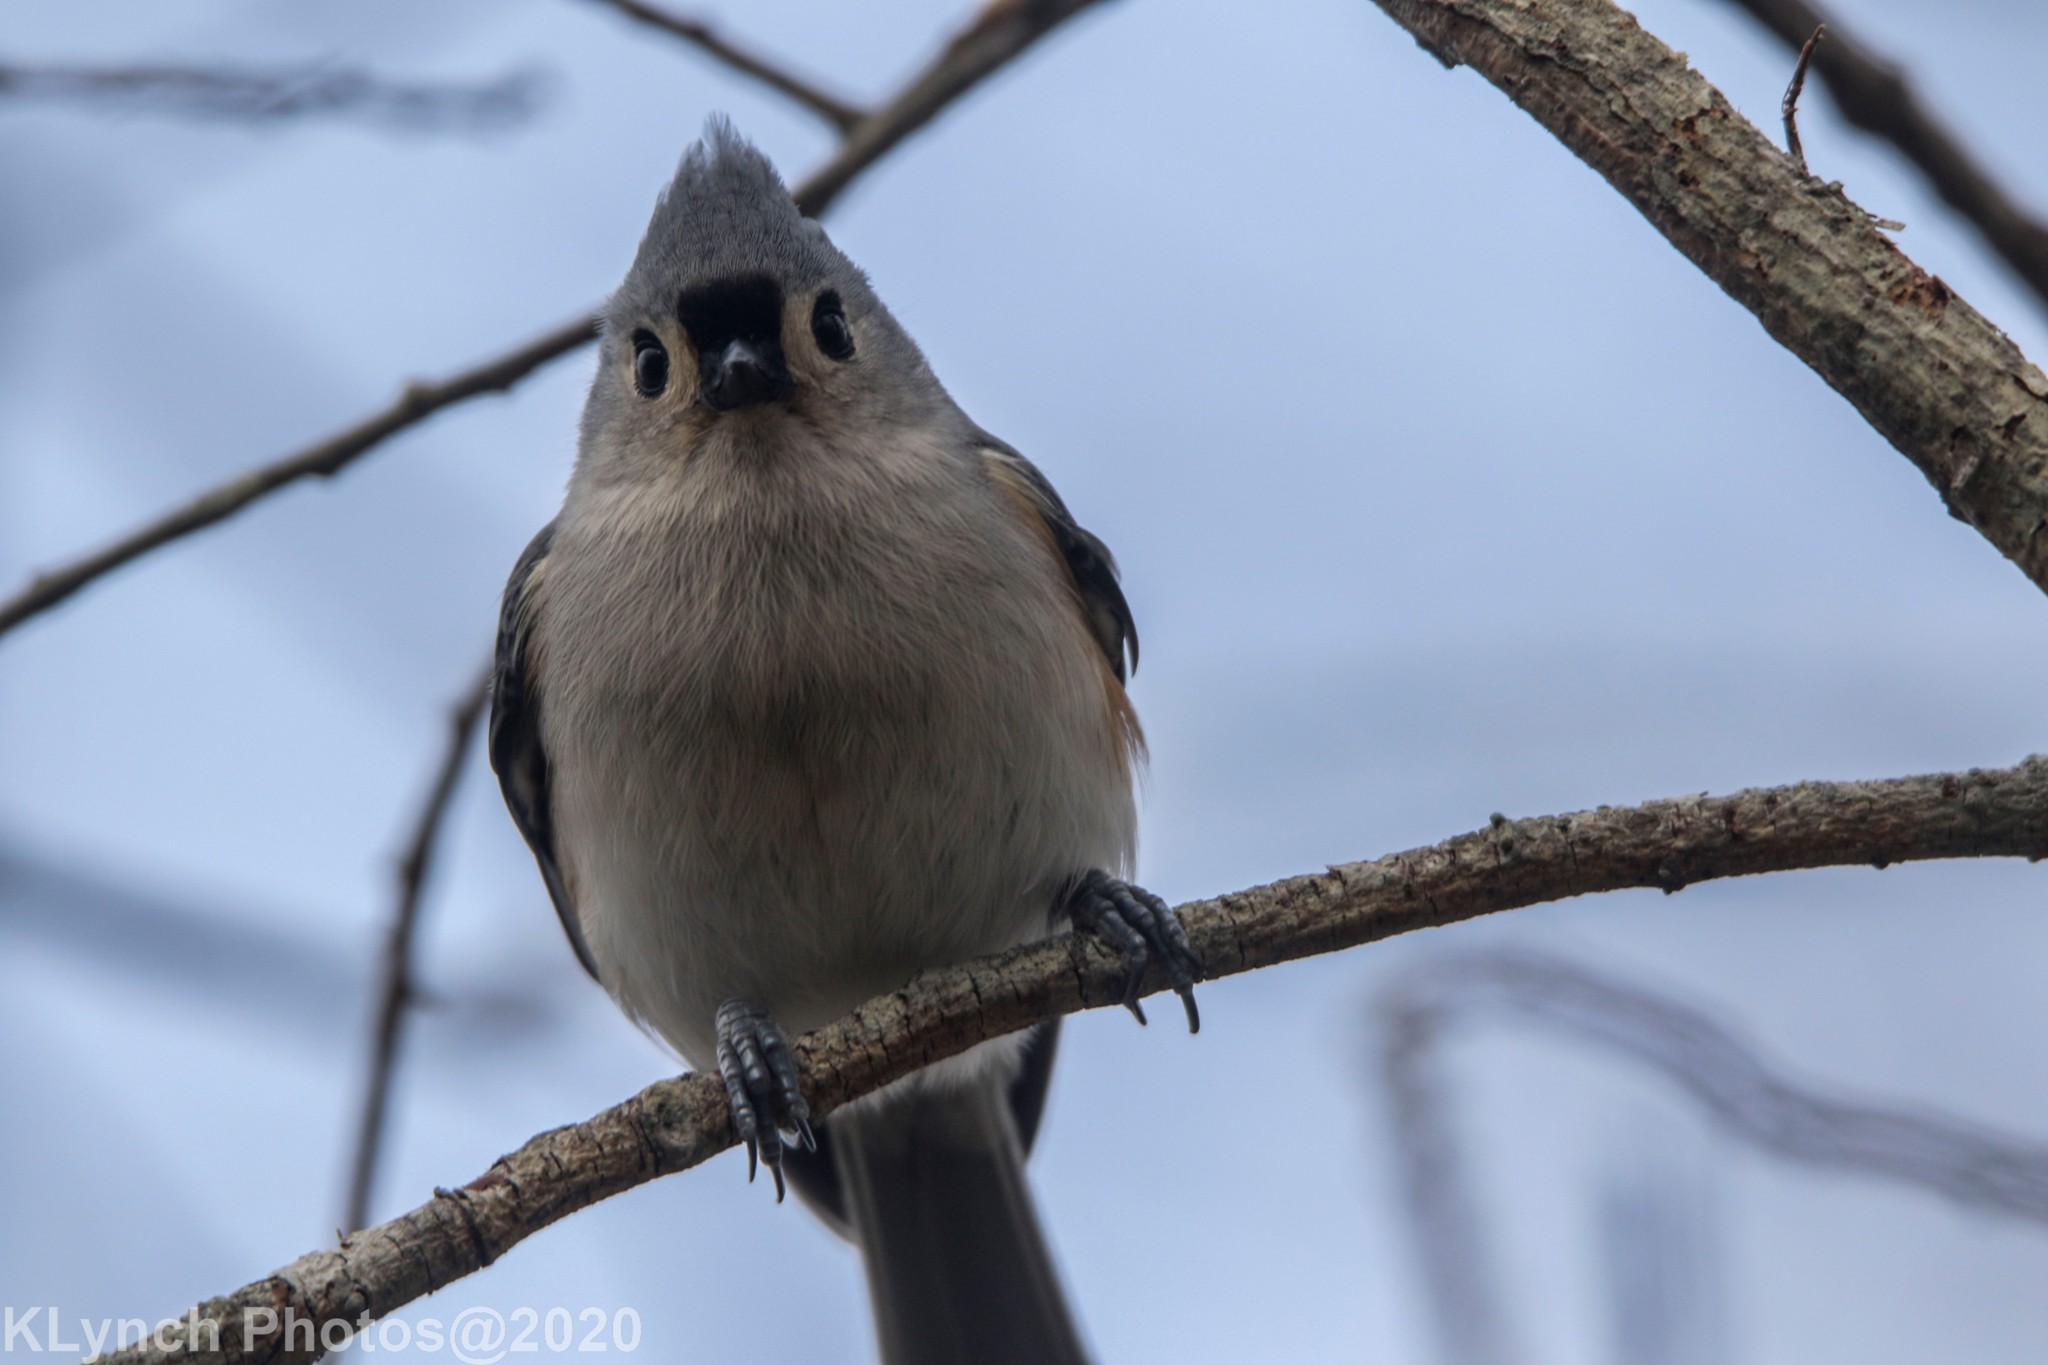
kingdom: Animalia
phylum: Chordata
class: Aves
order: Passeriformes
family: Paridae
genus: Baeolophus
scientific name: Baeolophus bicolor
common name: Tufted titmouse
